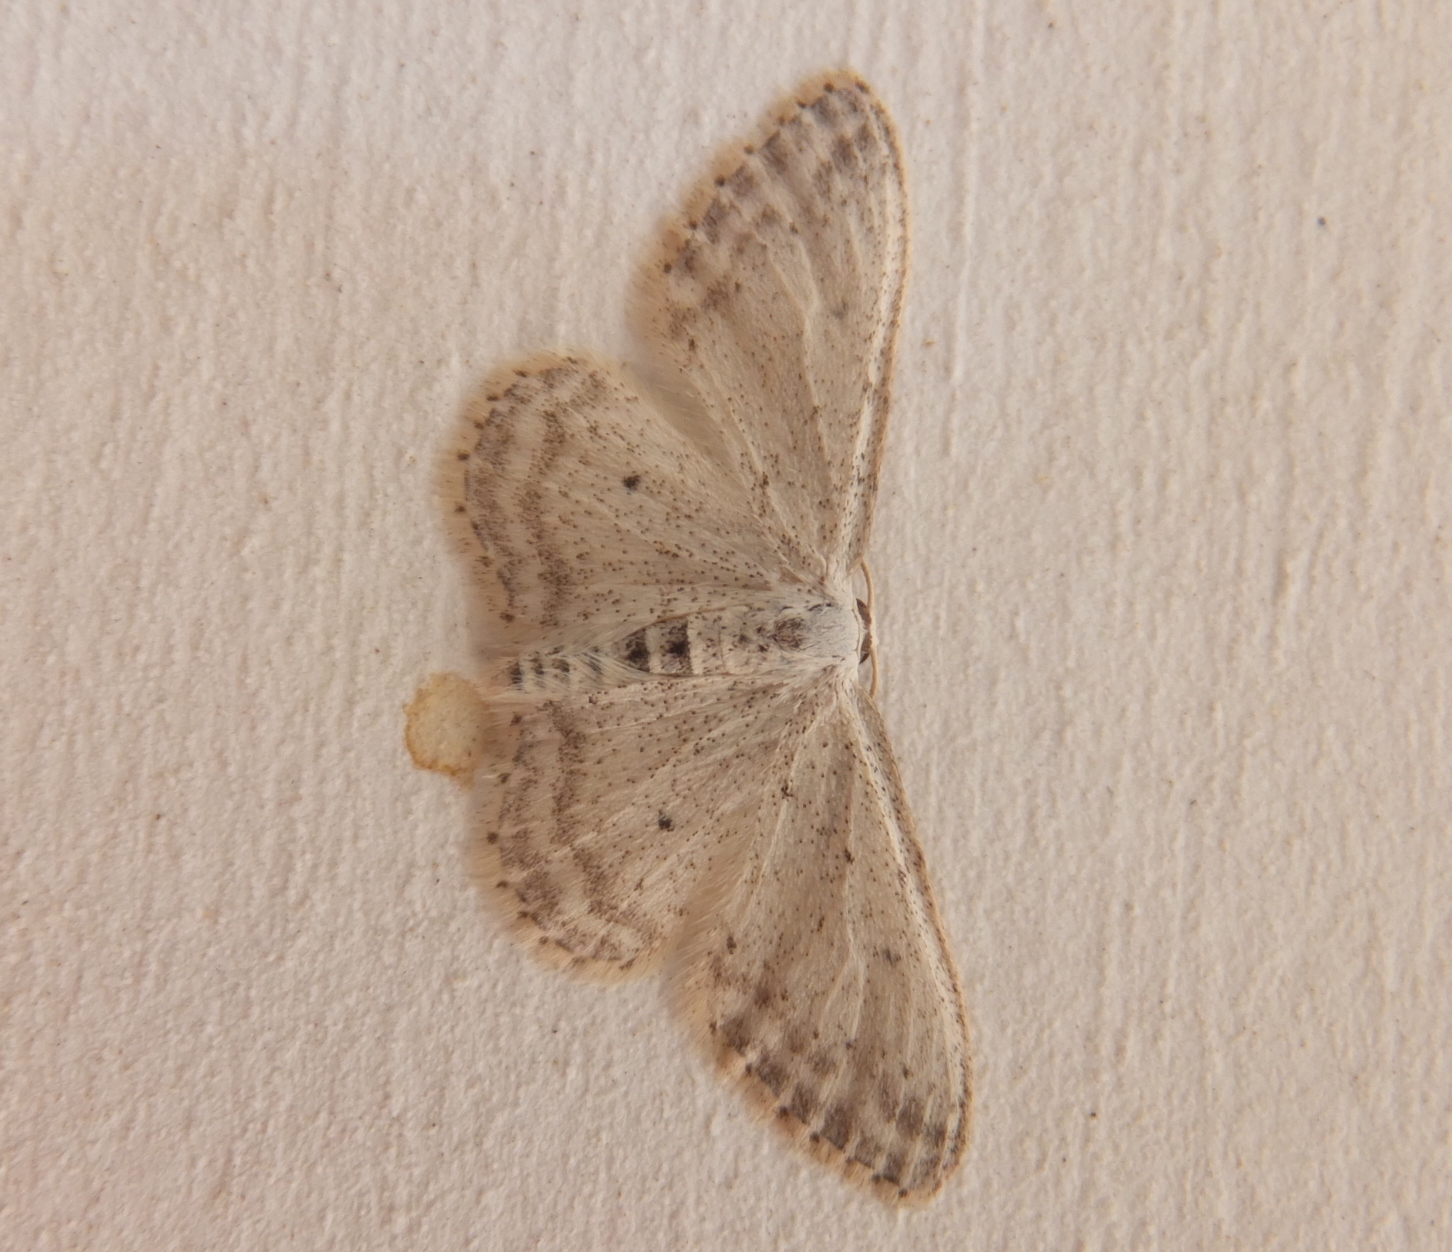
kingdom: Animalia
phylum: Arthropoda
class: Insecta
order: Lepidoptera
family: Geometridae
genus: Idaea
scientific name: Idaea seriata
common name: Small dusty wave
